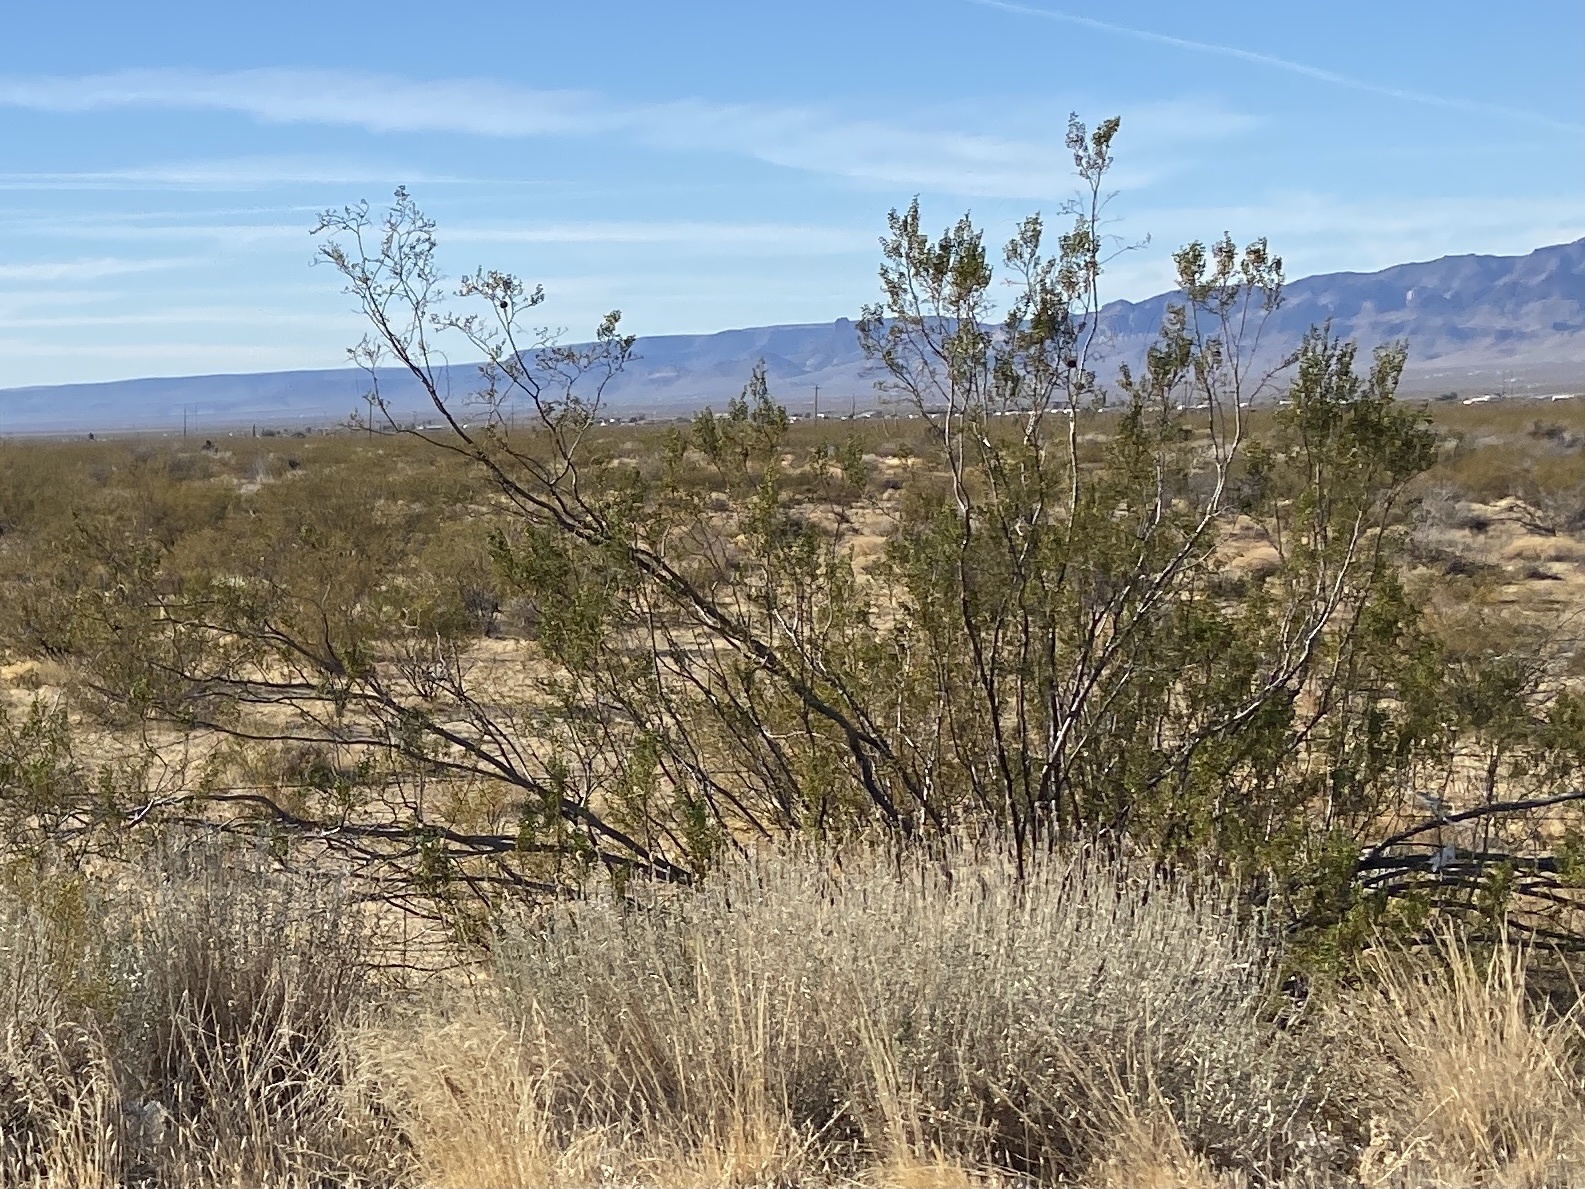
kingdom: Plantae
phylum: Tracheophyta
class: Magnoliopsida
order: Zygophyllales
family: Zygophyllaceae
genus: Larrea
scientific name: Larrea tridentata
